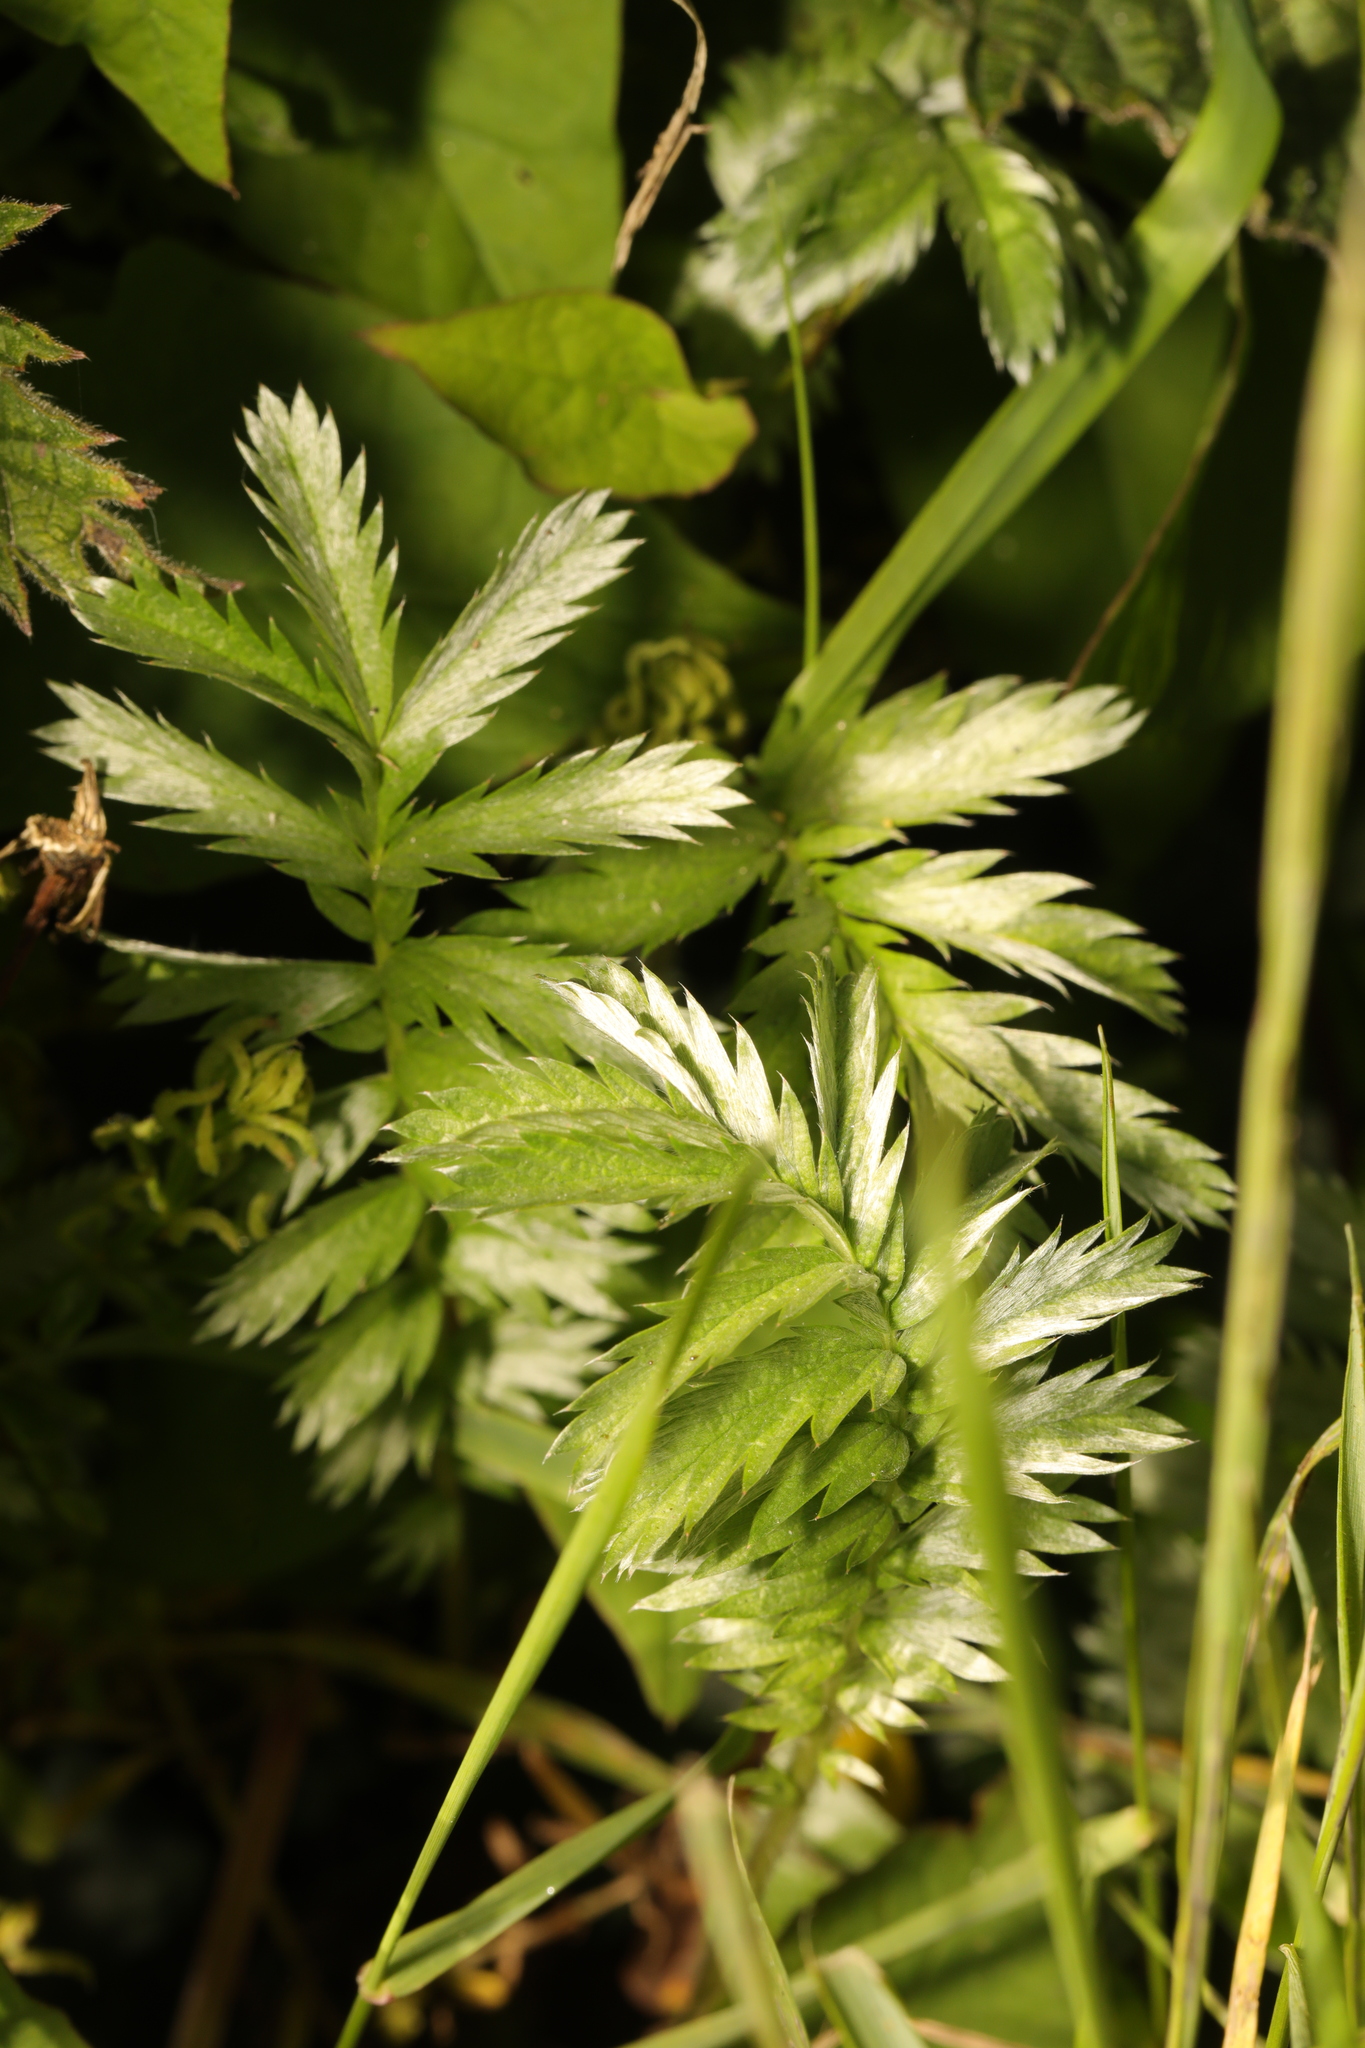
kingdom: Plantae
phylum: Tracheophyta
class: Magnoliopsida
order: Rosales
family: Rosaceae
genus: Argentina
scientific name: Argentina anserina
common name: Common silverweed
